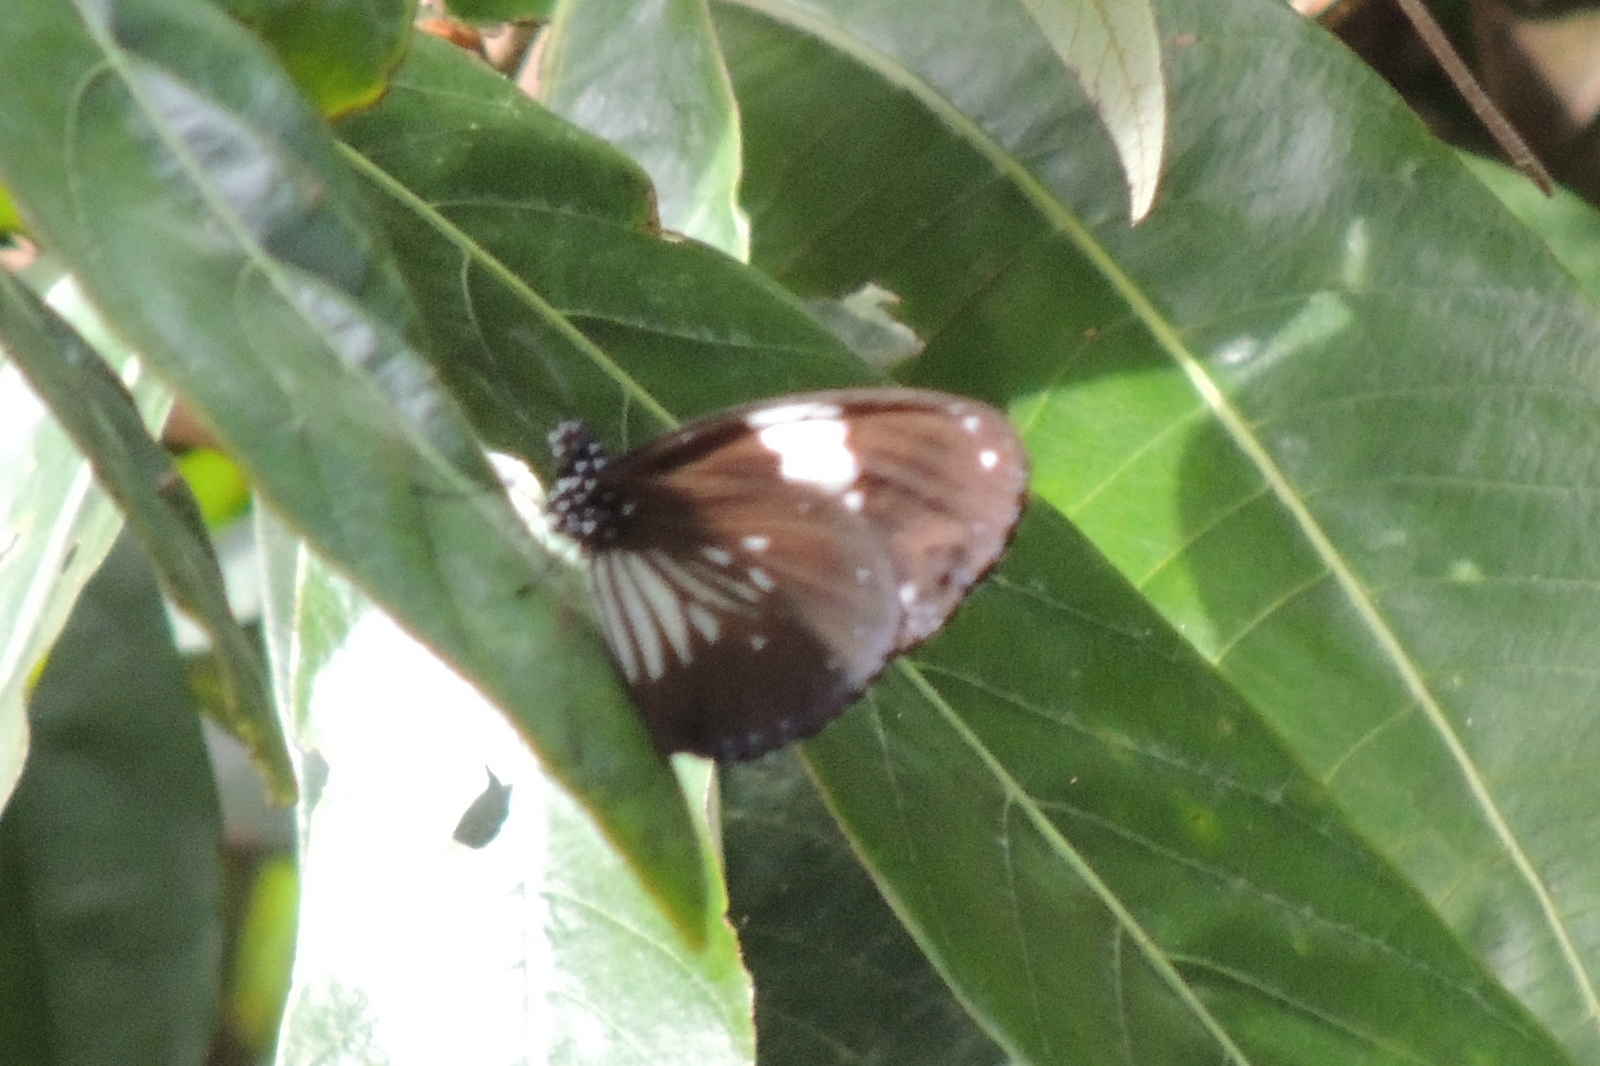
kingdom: Animalia
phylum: Arthropoda
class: Insecta
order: Lepidoptera
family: Nymphalidae
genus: Euploea
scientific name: Euploea radamanthus
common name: Magpie crow butterfly
